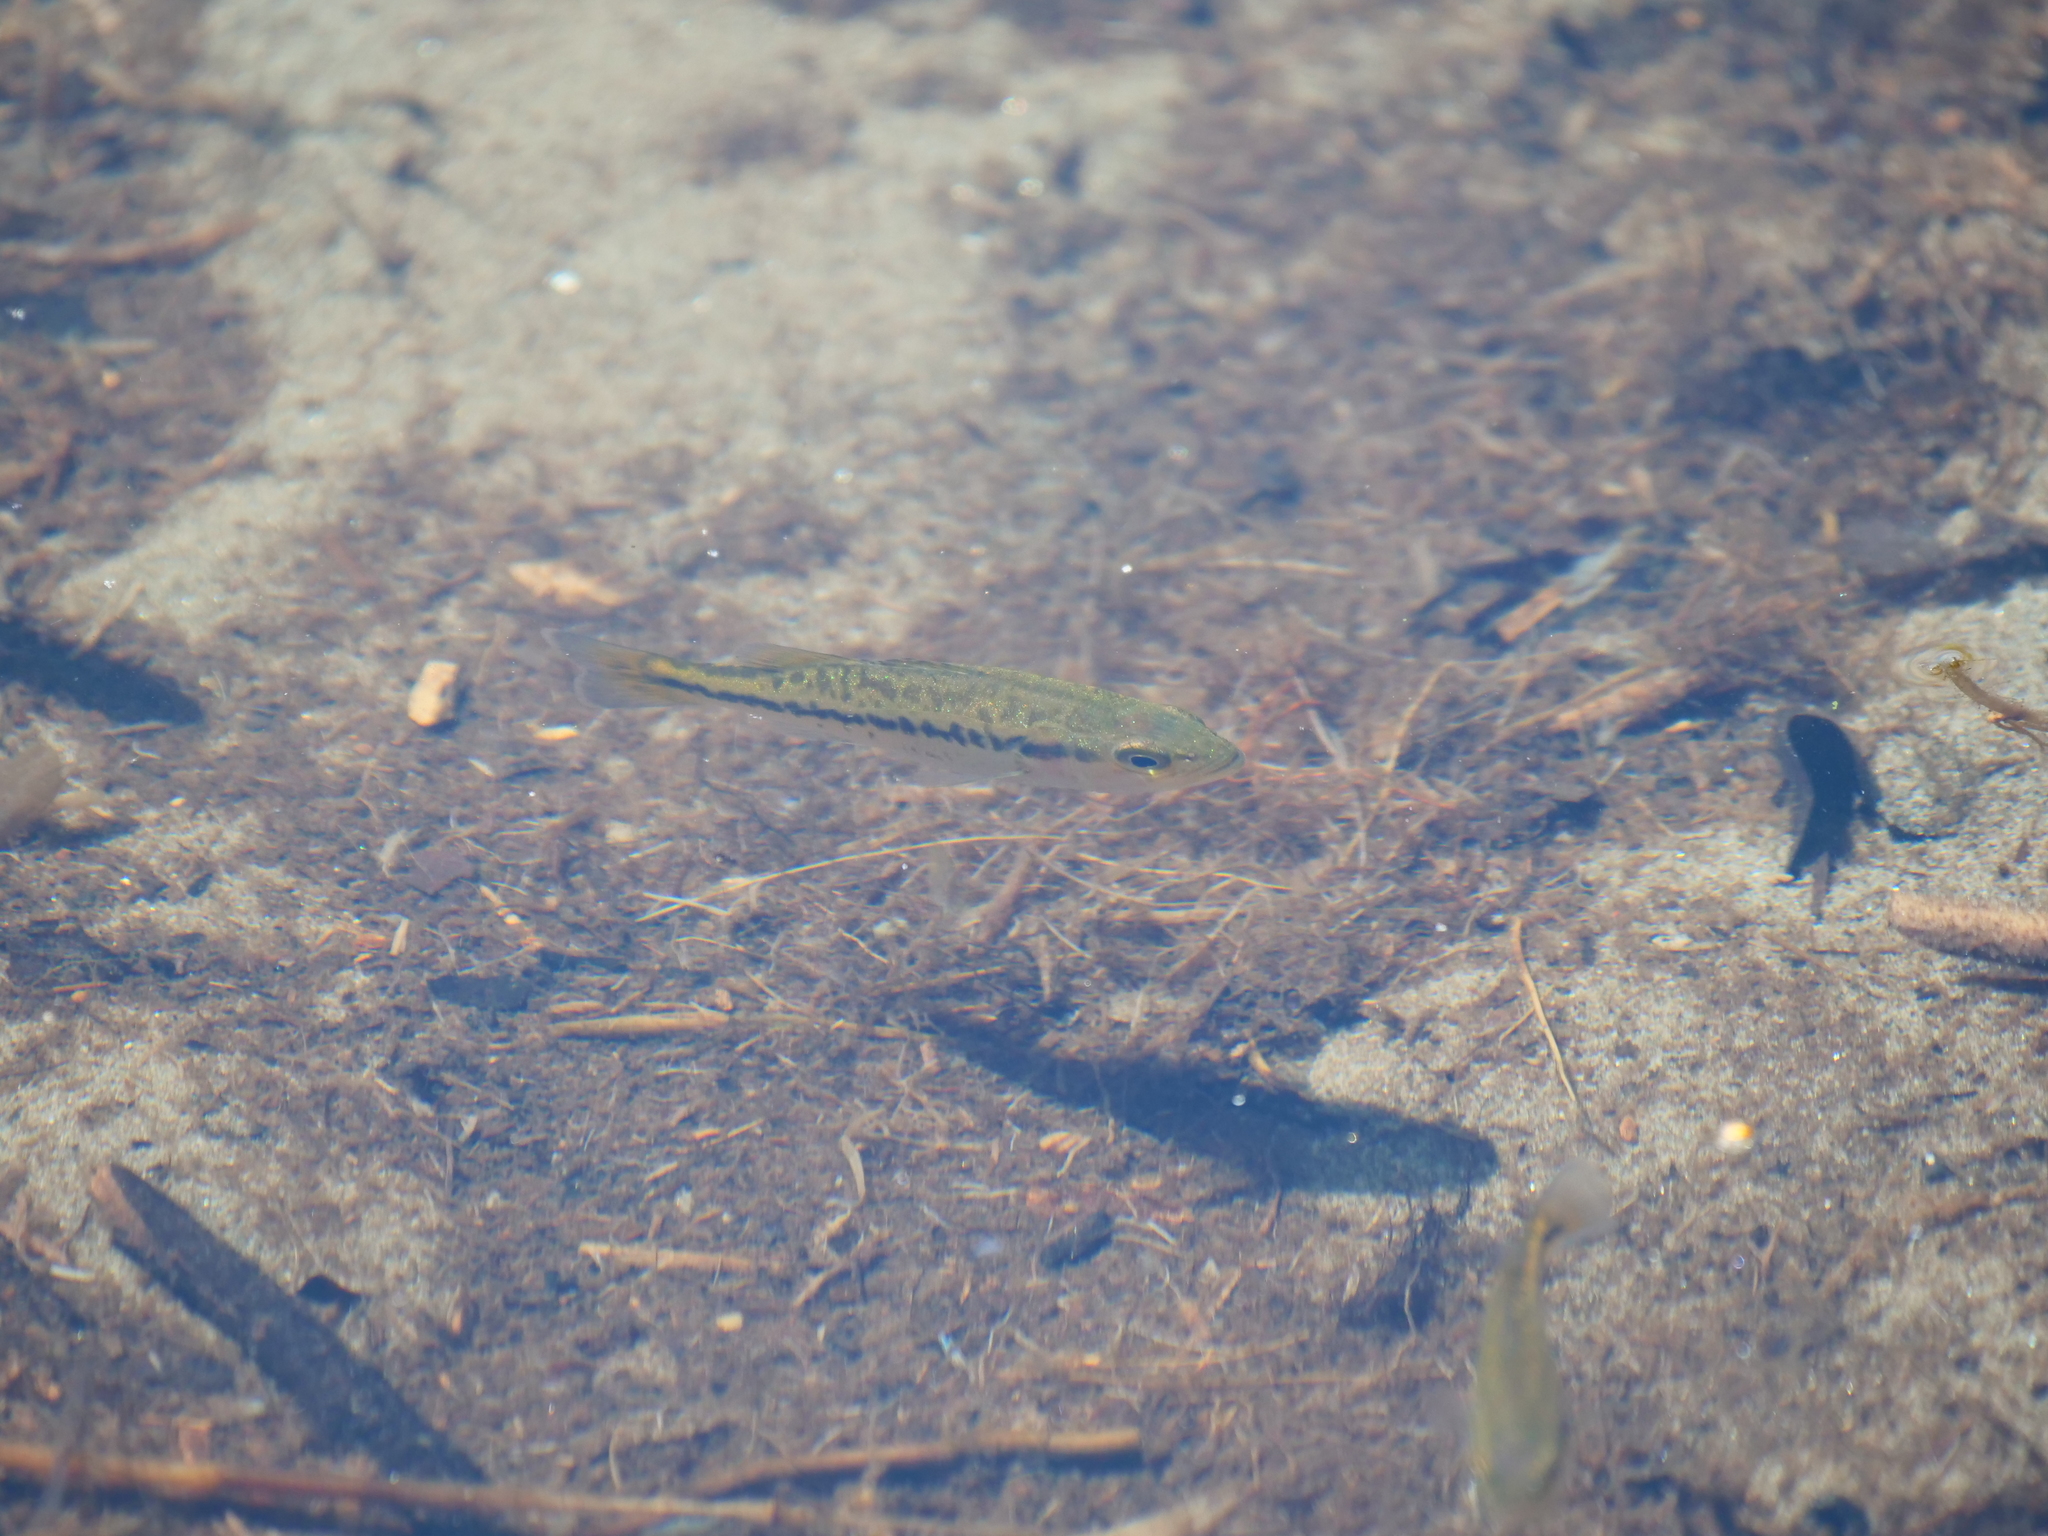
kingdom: Animalia
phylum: Chordata
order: Perciformes
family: Centrarchidae
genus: Micropterus
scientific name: Micropterus
